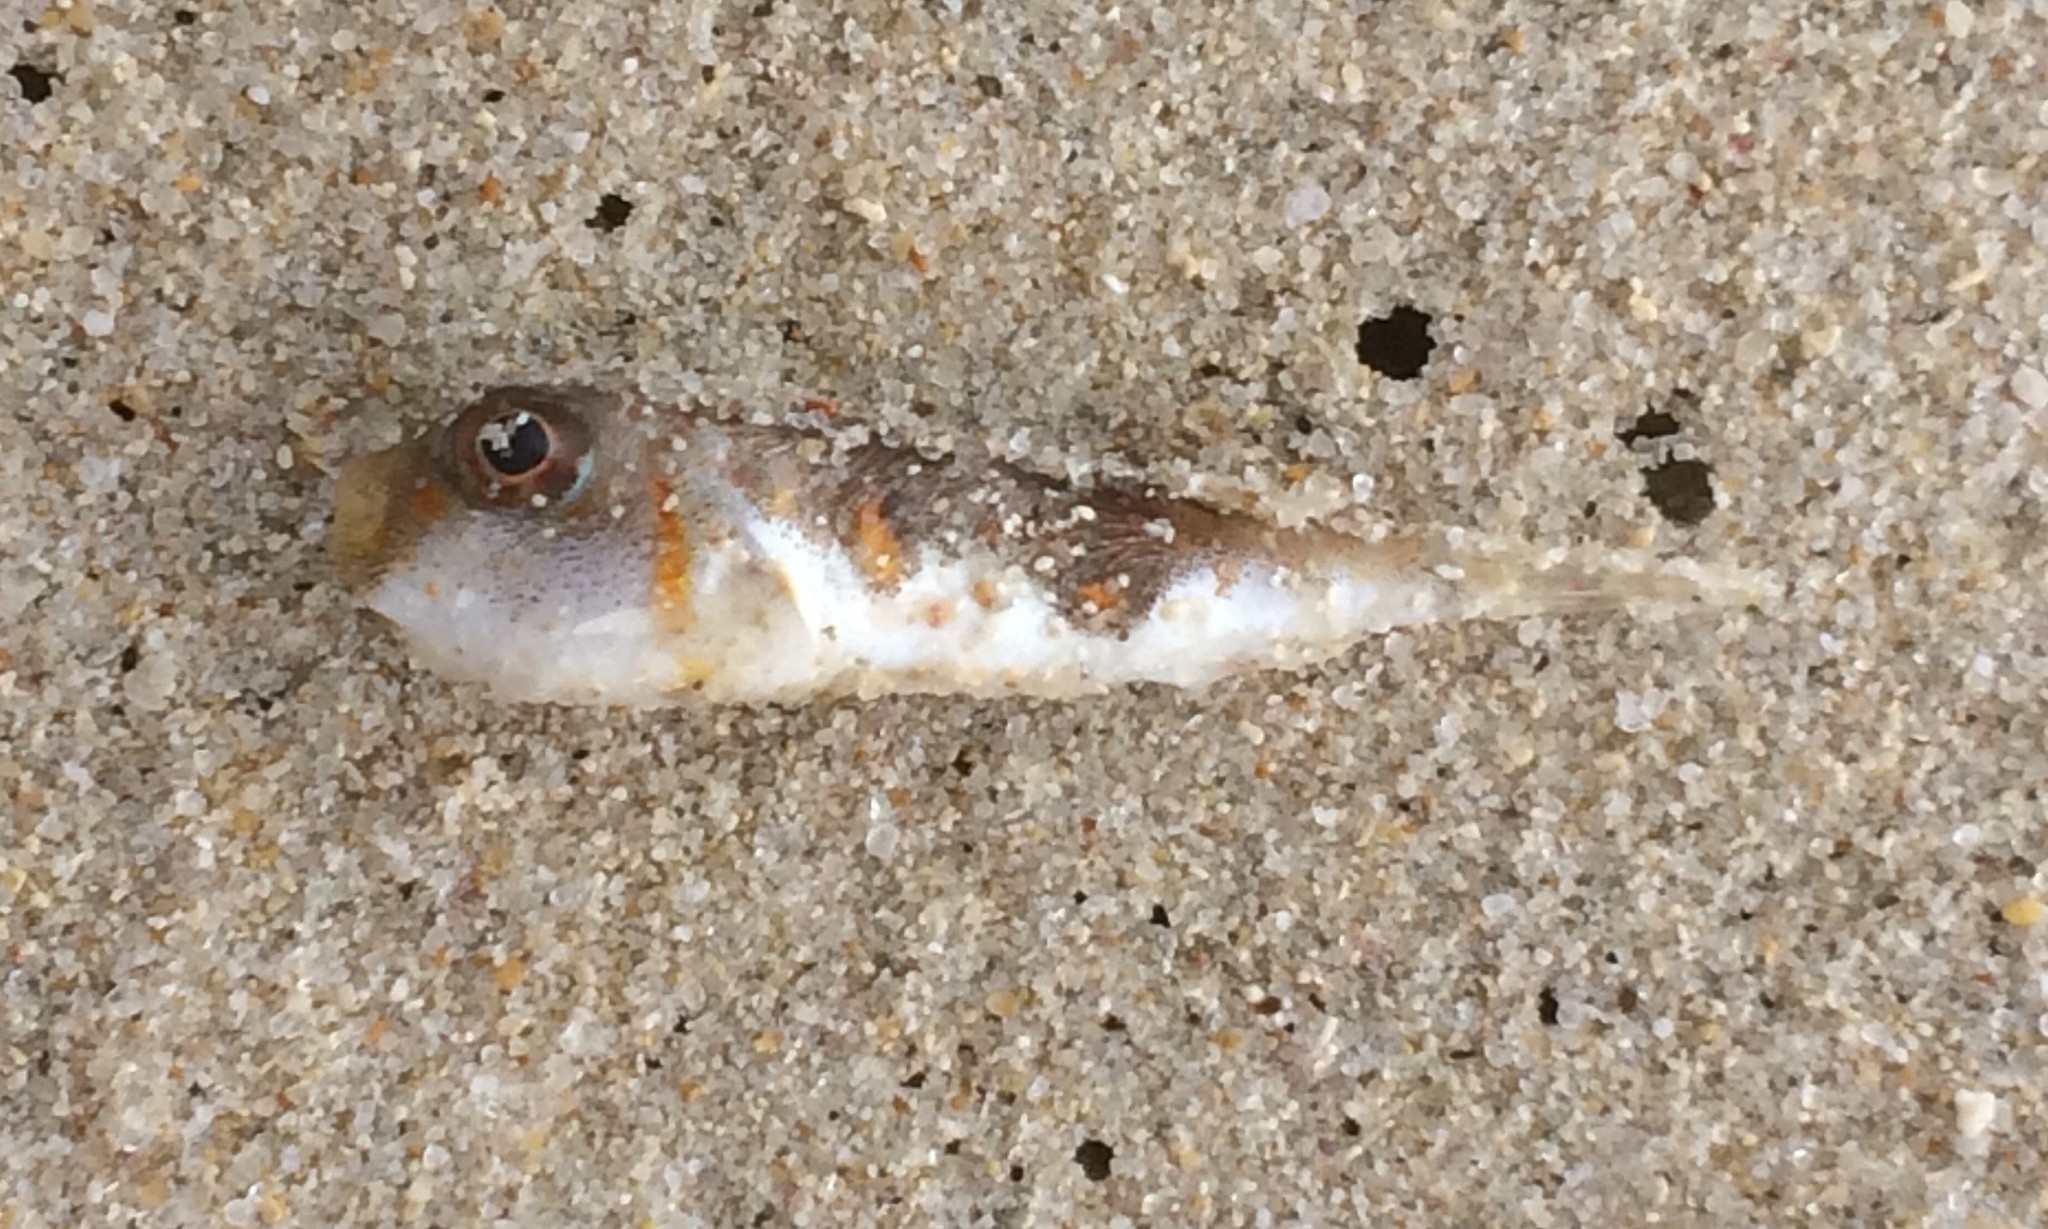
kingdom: Animalia
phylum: Chordata
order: Tetraodontiformes
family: Tetraodontidae
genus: Polyspina
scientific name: Polyspina piosae
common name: Orange-barred pufferfish
